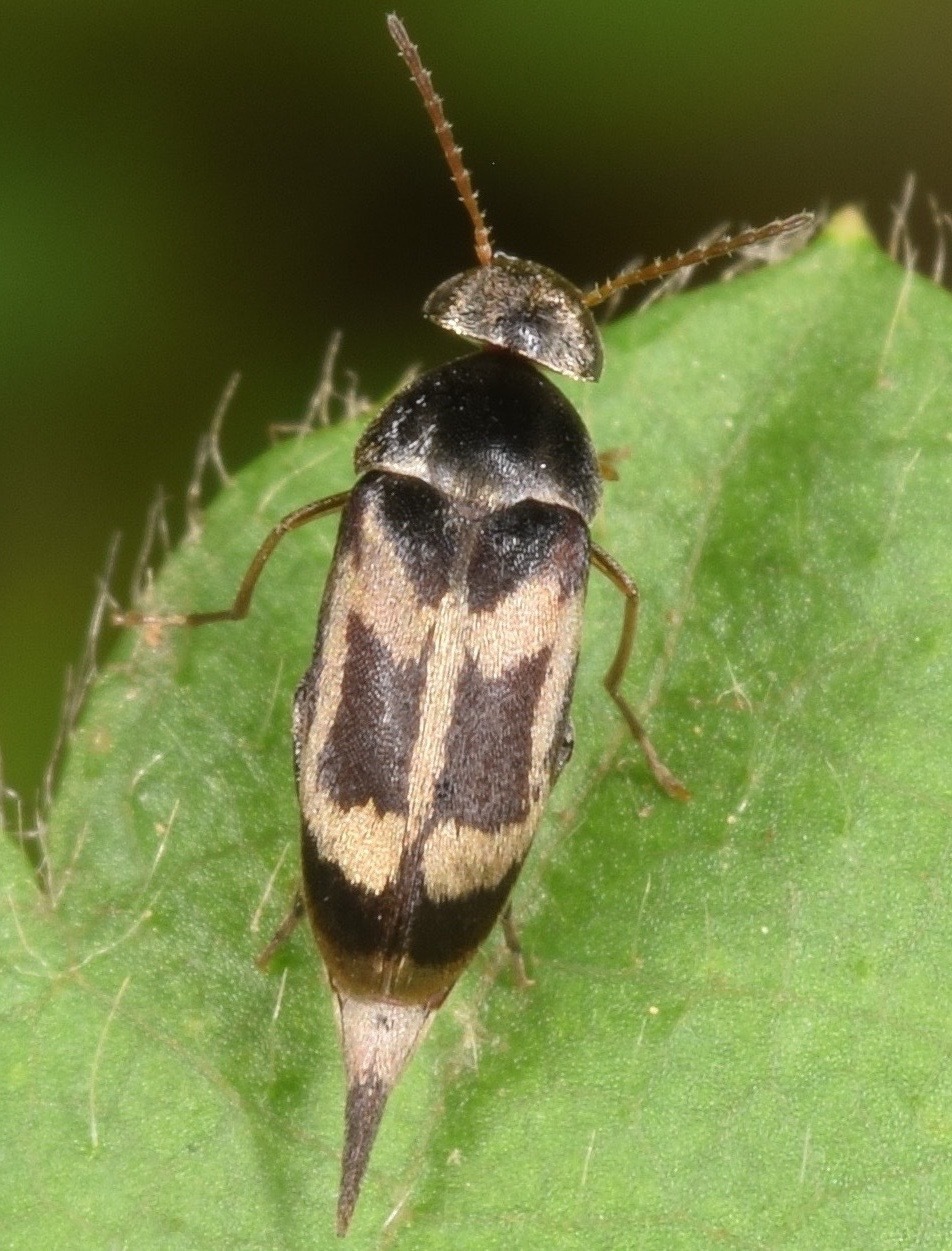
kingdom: Animalia
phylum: Arthropoda
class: Insecta
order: Coleoptera
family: Mordellidae
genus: Falsomordellistena
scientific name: Falsomordellistena hebraica
